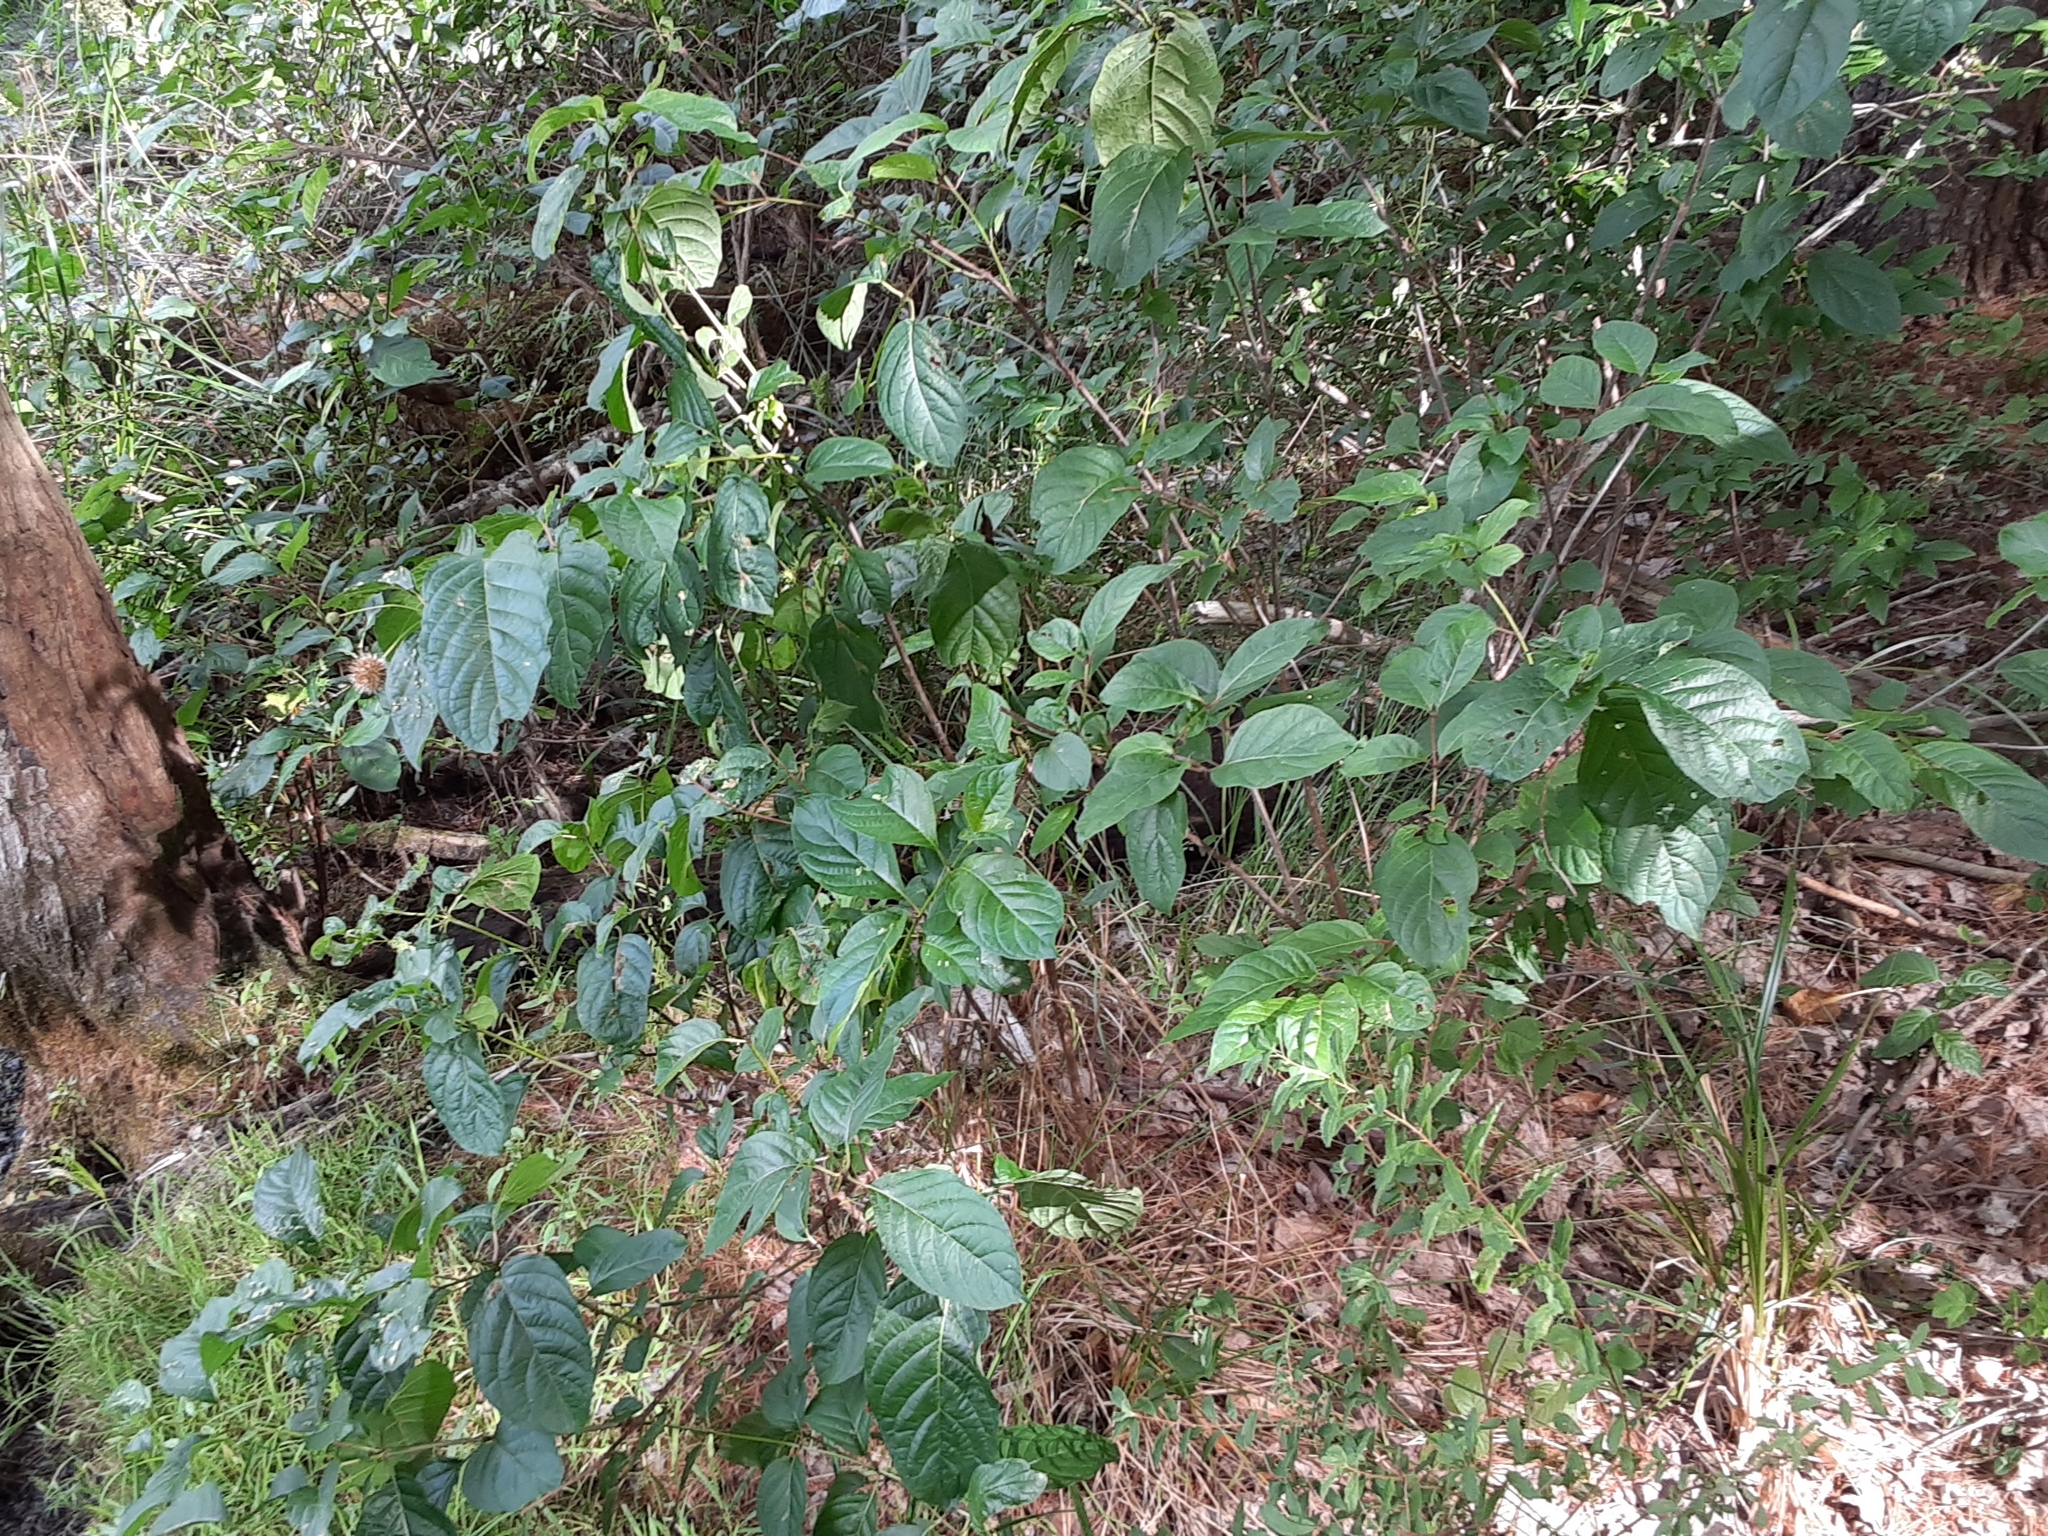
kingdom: Plantae
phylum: Tracheophyta
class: Magnoliopsida
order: Gentianales
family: Rubiaceae
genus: Cephalanthus
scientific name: Cephalanthus occidentalis
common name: Button-willow
